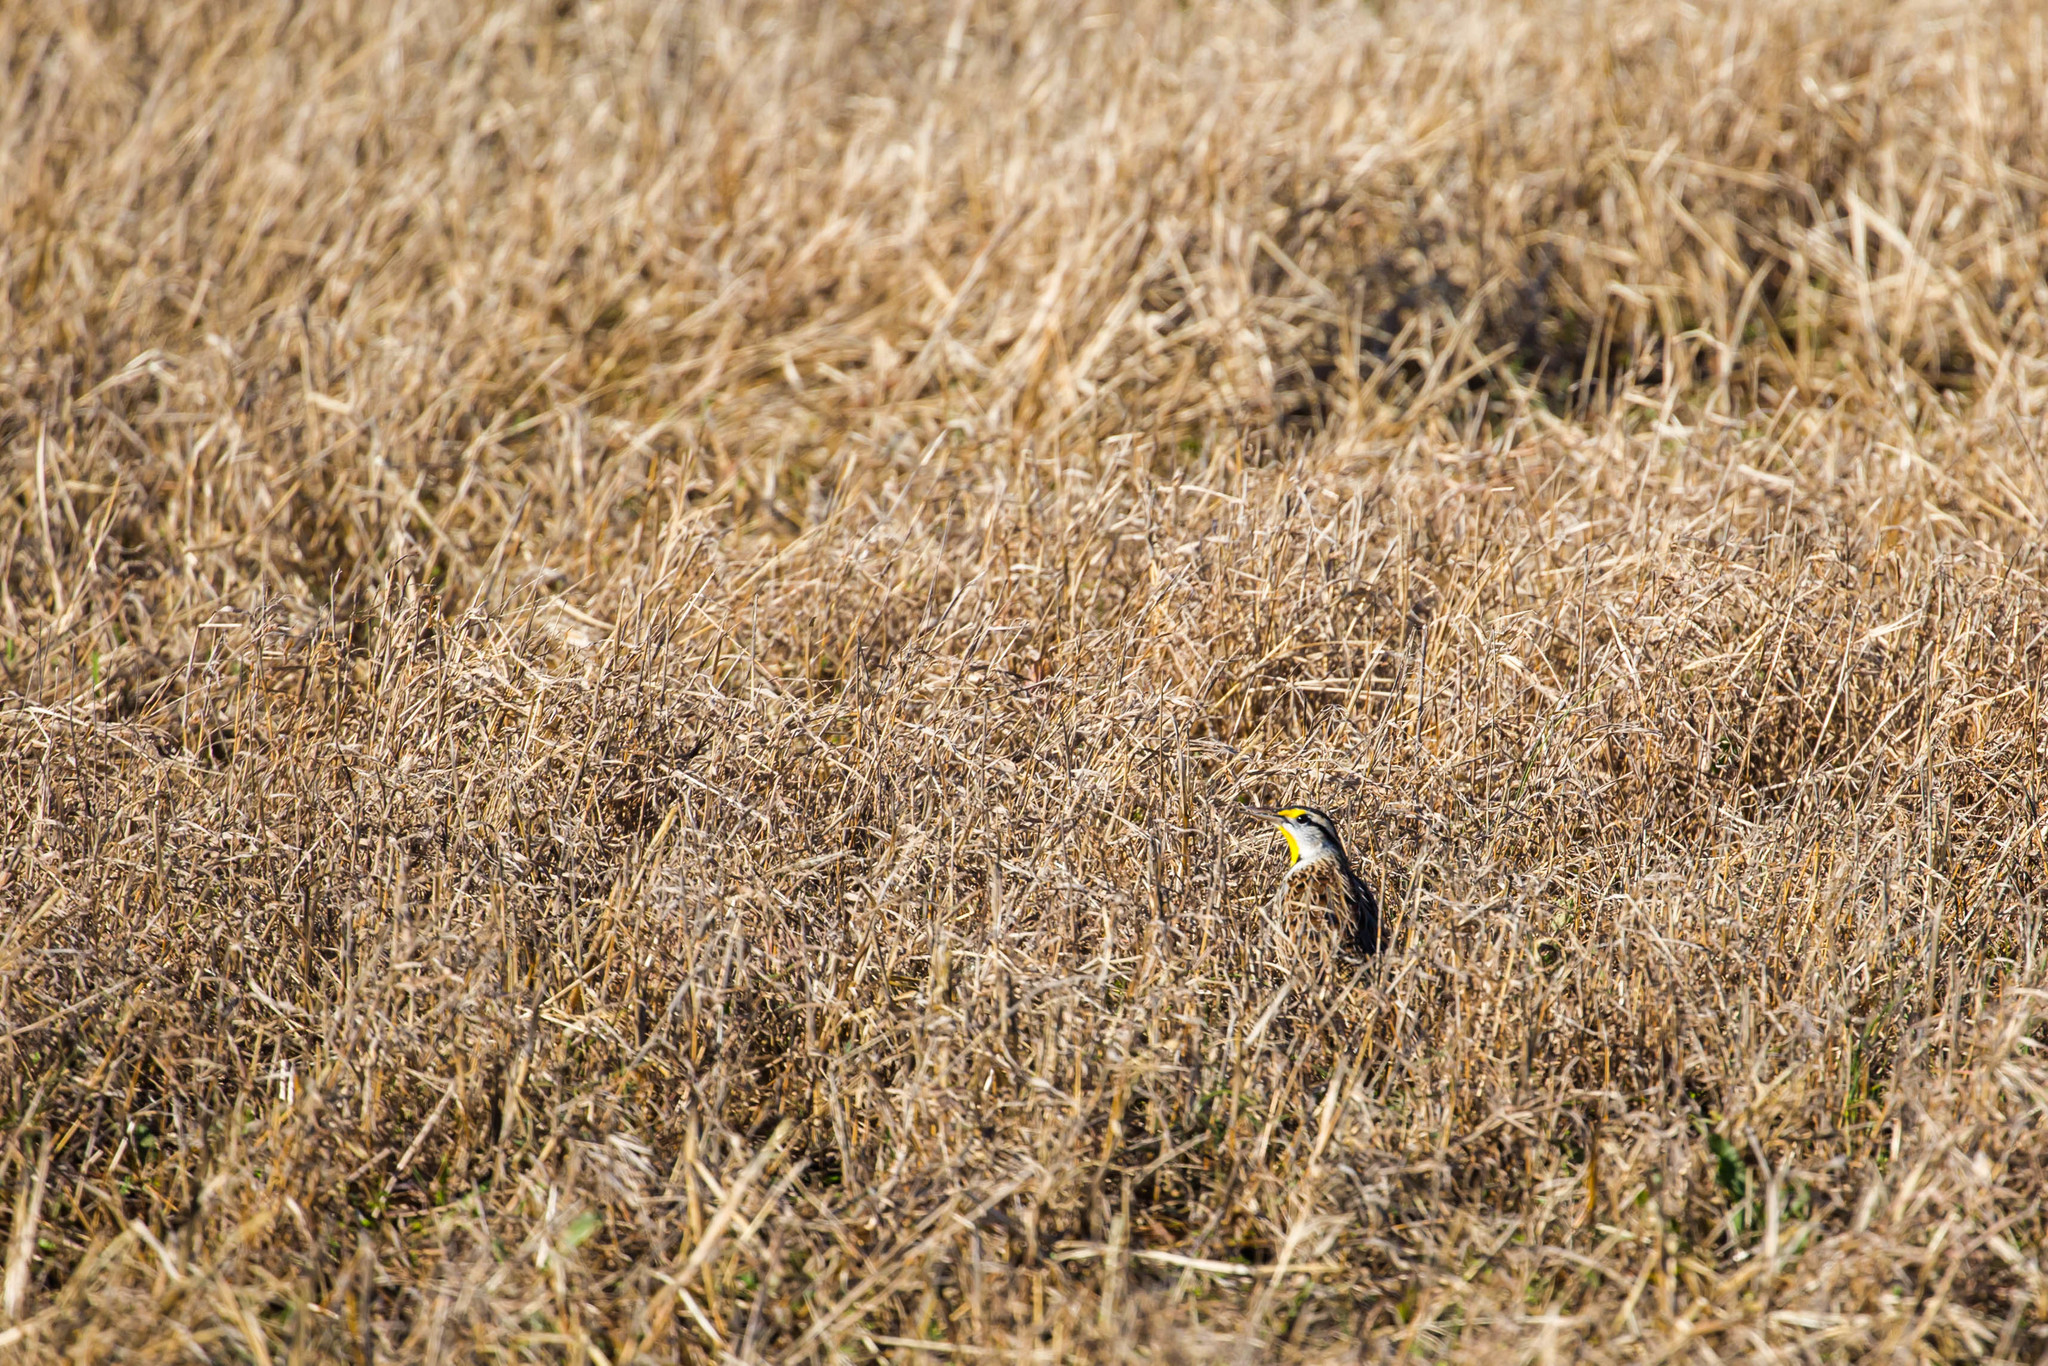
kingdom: Animalia
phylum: Chordata
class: Aves
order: Passeriformes
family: Icteridae
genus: Sturnella
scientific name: Sturnella magna
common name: Eastern meadowlark
